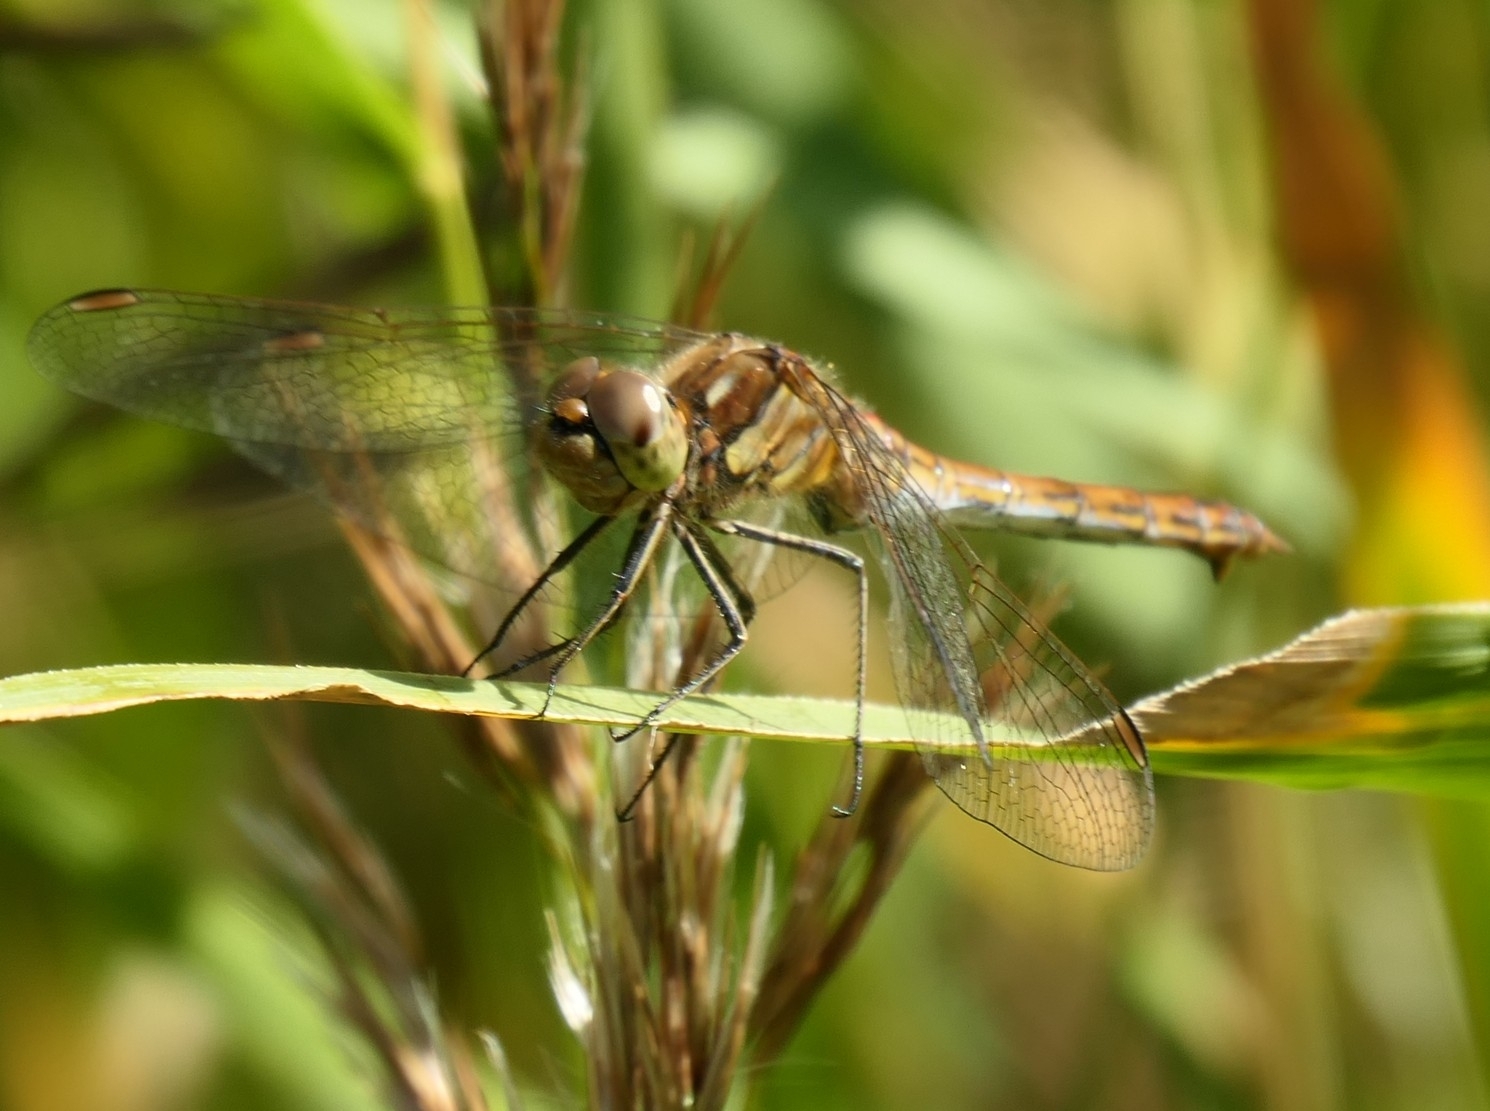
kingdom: Animalia
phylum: Arthropoda
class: Insecta
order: Odonata
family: Libellulidae
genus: Sympetrum
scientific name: Sympetrum vulgatum
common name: Vagrant darter
